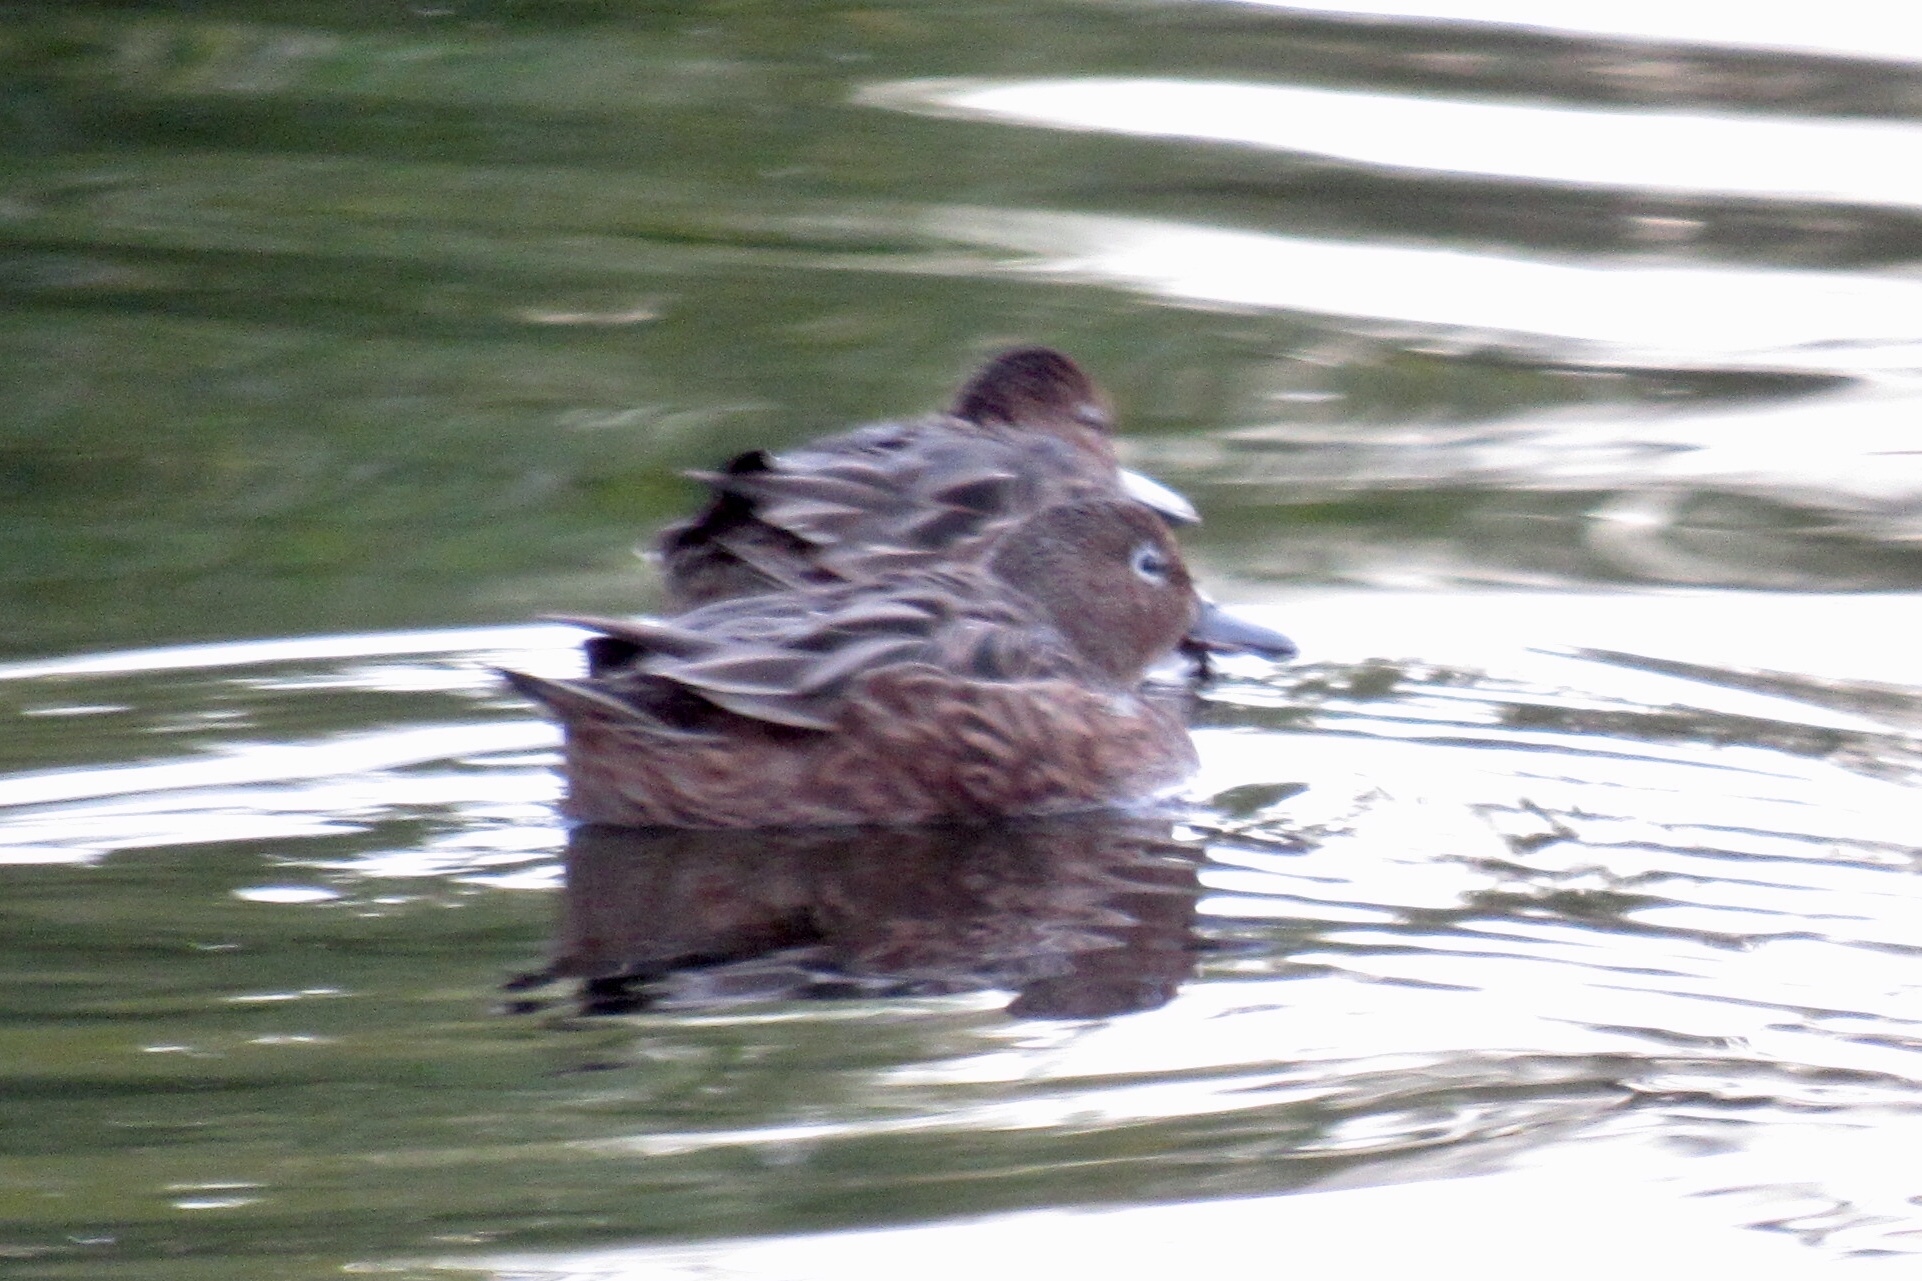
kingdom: Animalia
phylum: Chordata
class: Aves
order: Anseriformes
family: Anatidae
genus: Spatula
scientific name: Spatula cyanoptera
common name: Cinnamon teal
